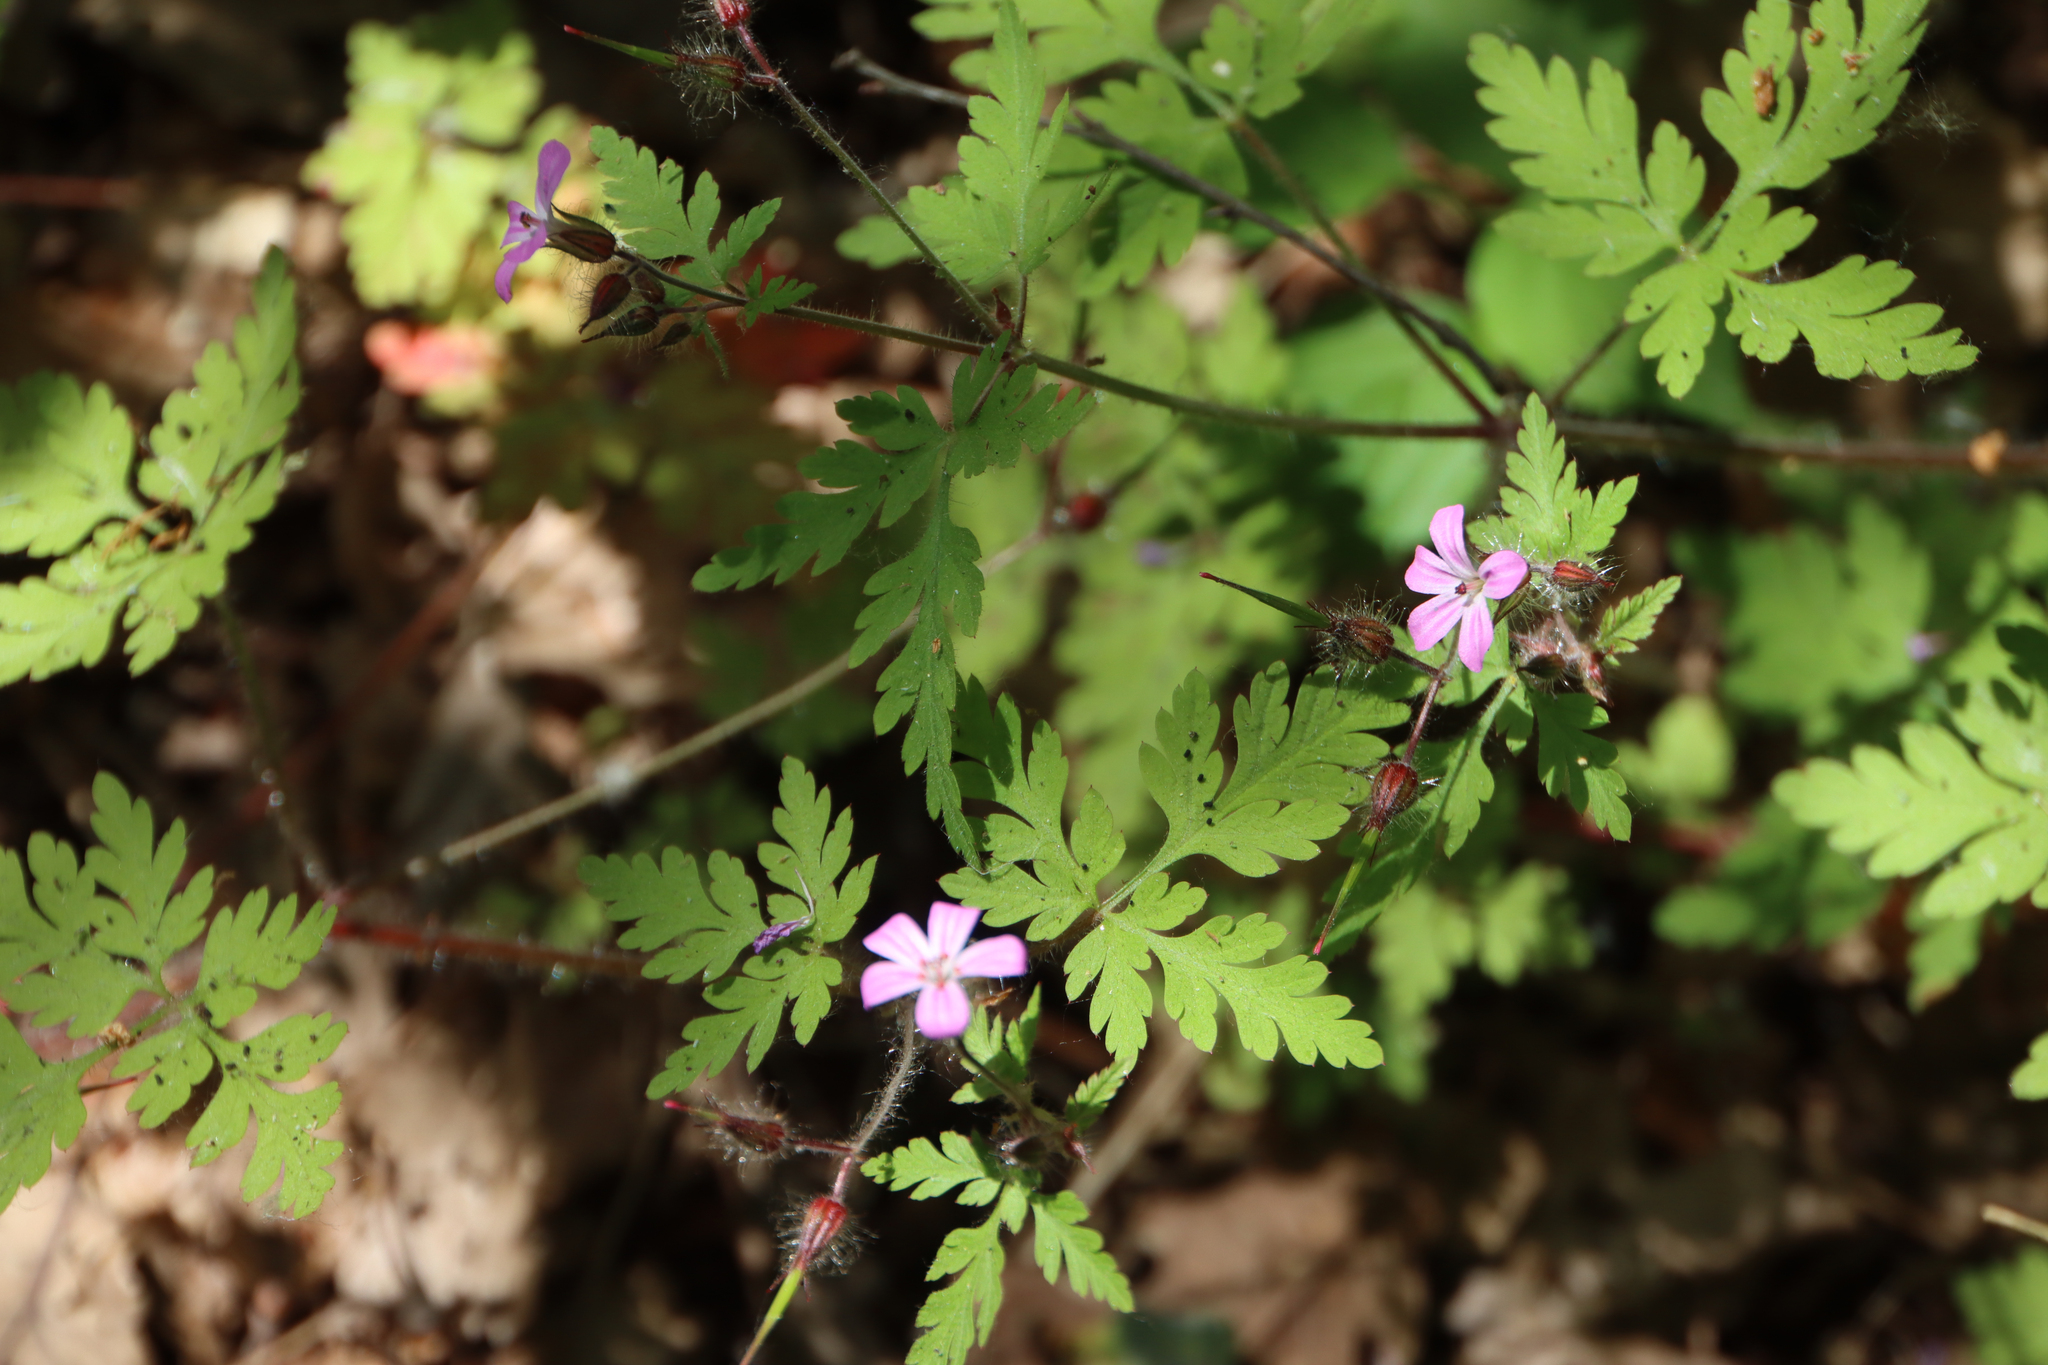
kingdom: Plantae
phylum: Tracheophyta
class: Magnoliopsida
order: Geraniales
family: Geraniaceae
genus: Geranium
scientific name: Geranium robertianum
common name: Herb-robert
